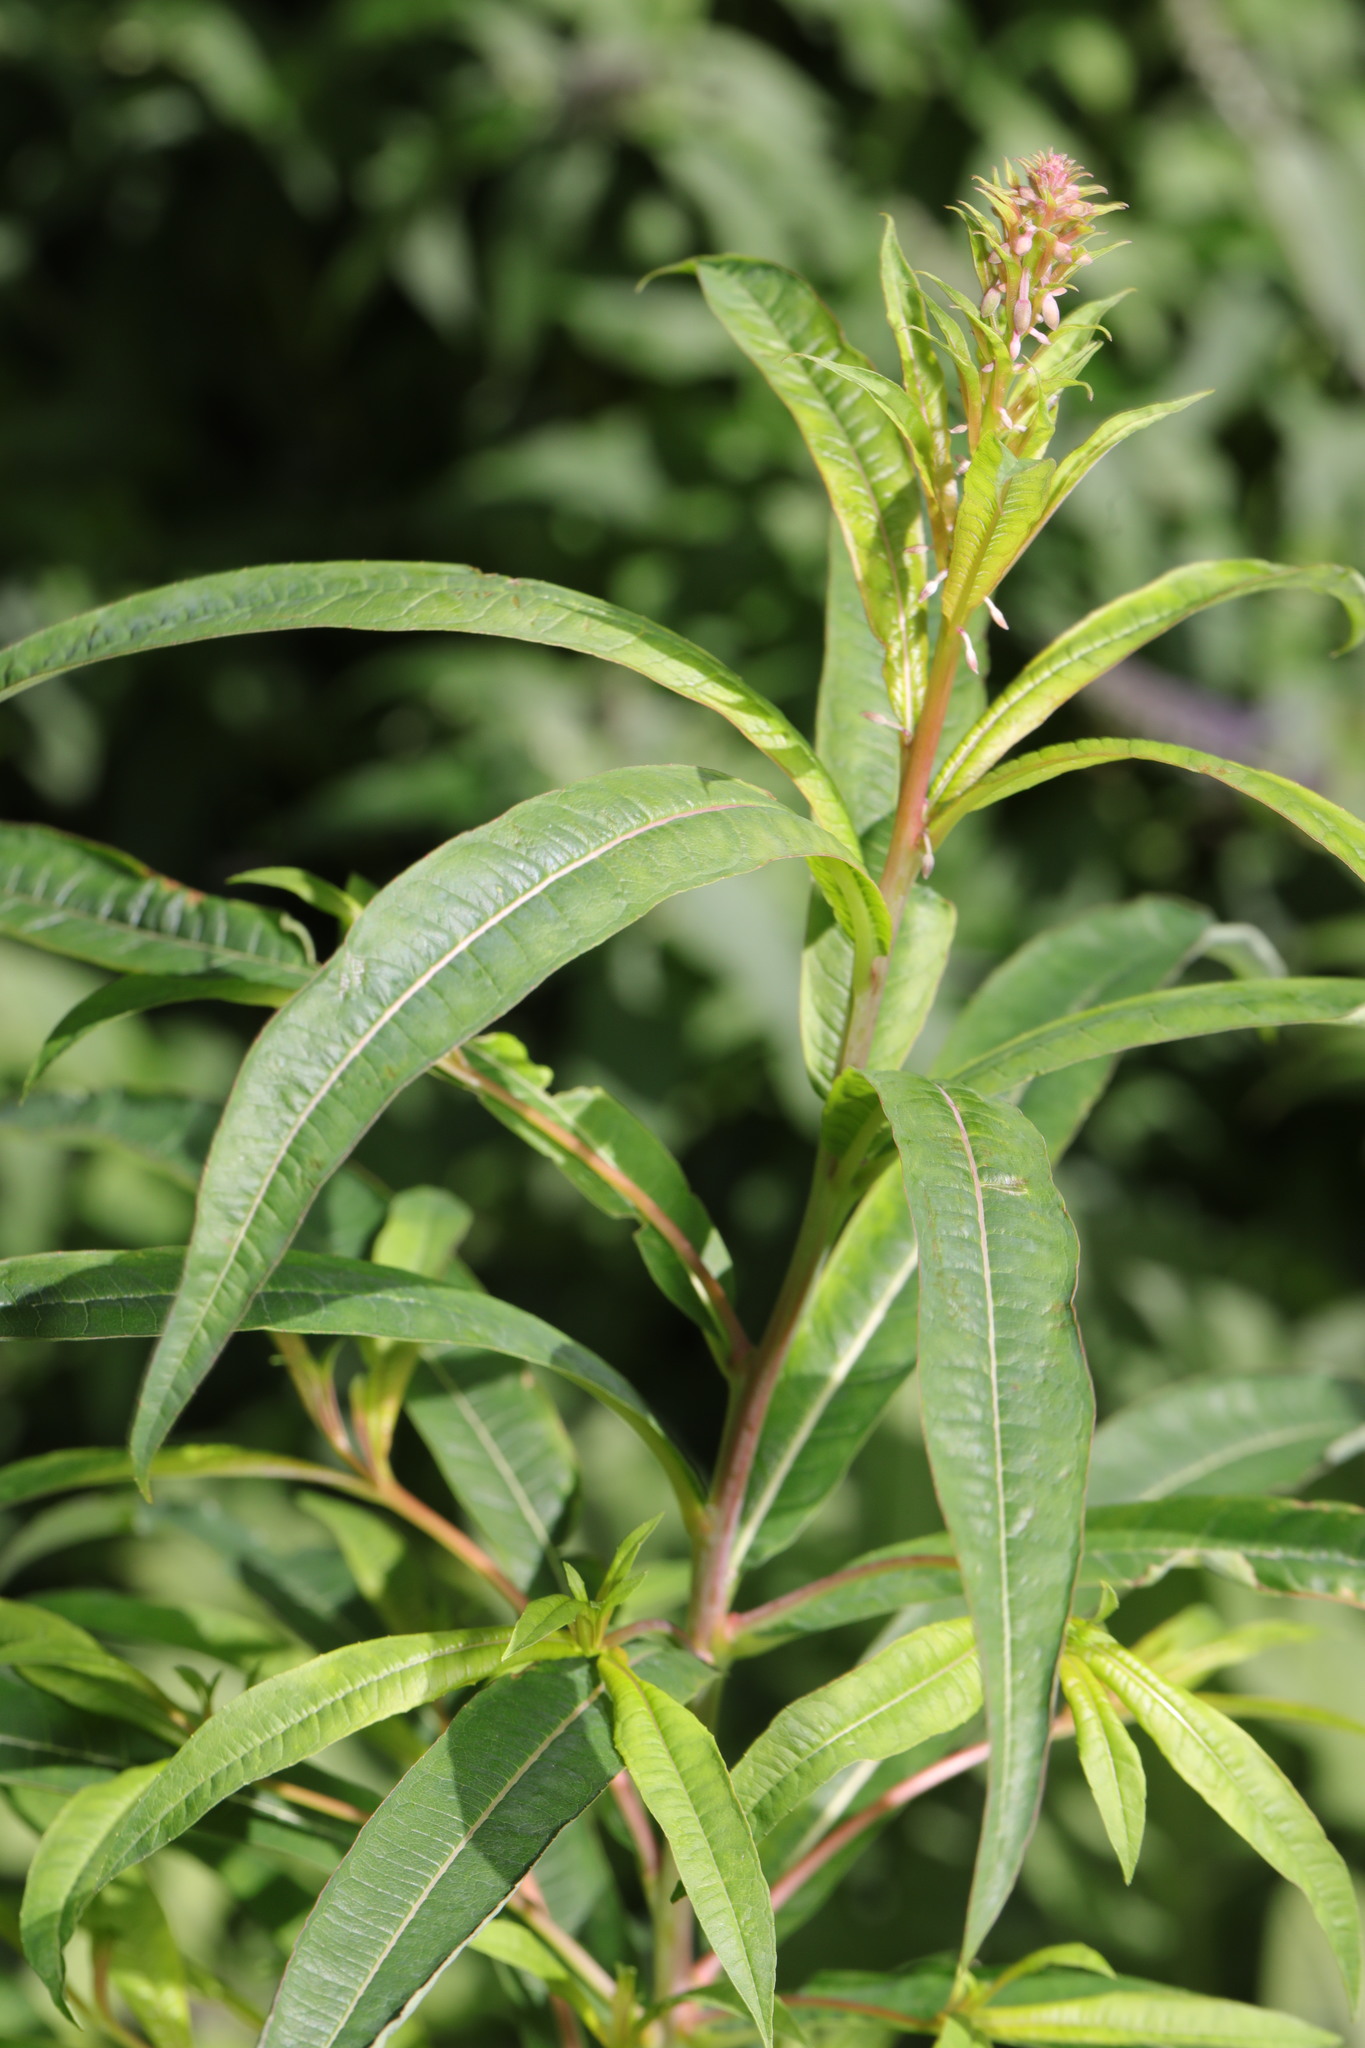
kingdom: Plantae
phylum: Tracheophyta
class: Magnoliopsida
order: Myrtales
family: Onagraceae
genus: Chamaenerion
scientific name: Chamaenerion angustifolium
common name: Fireweed
